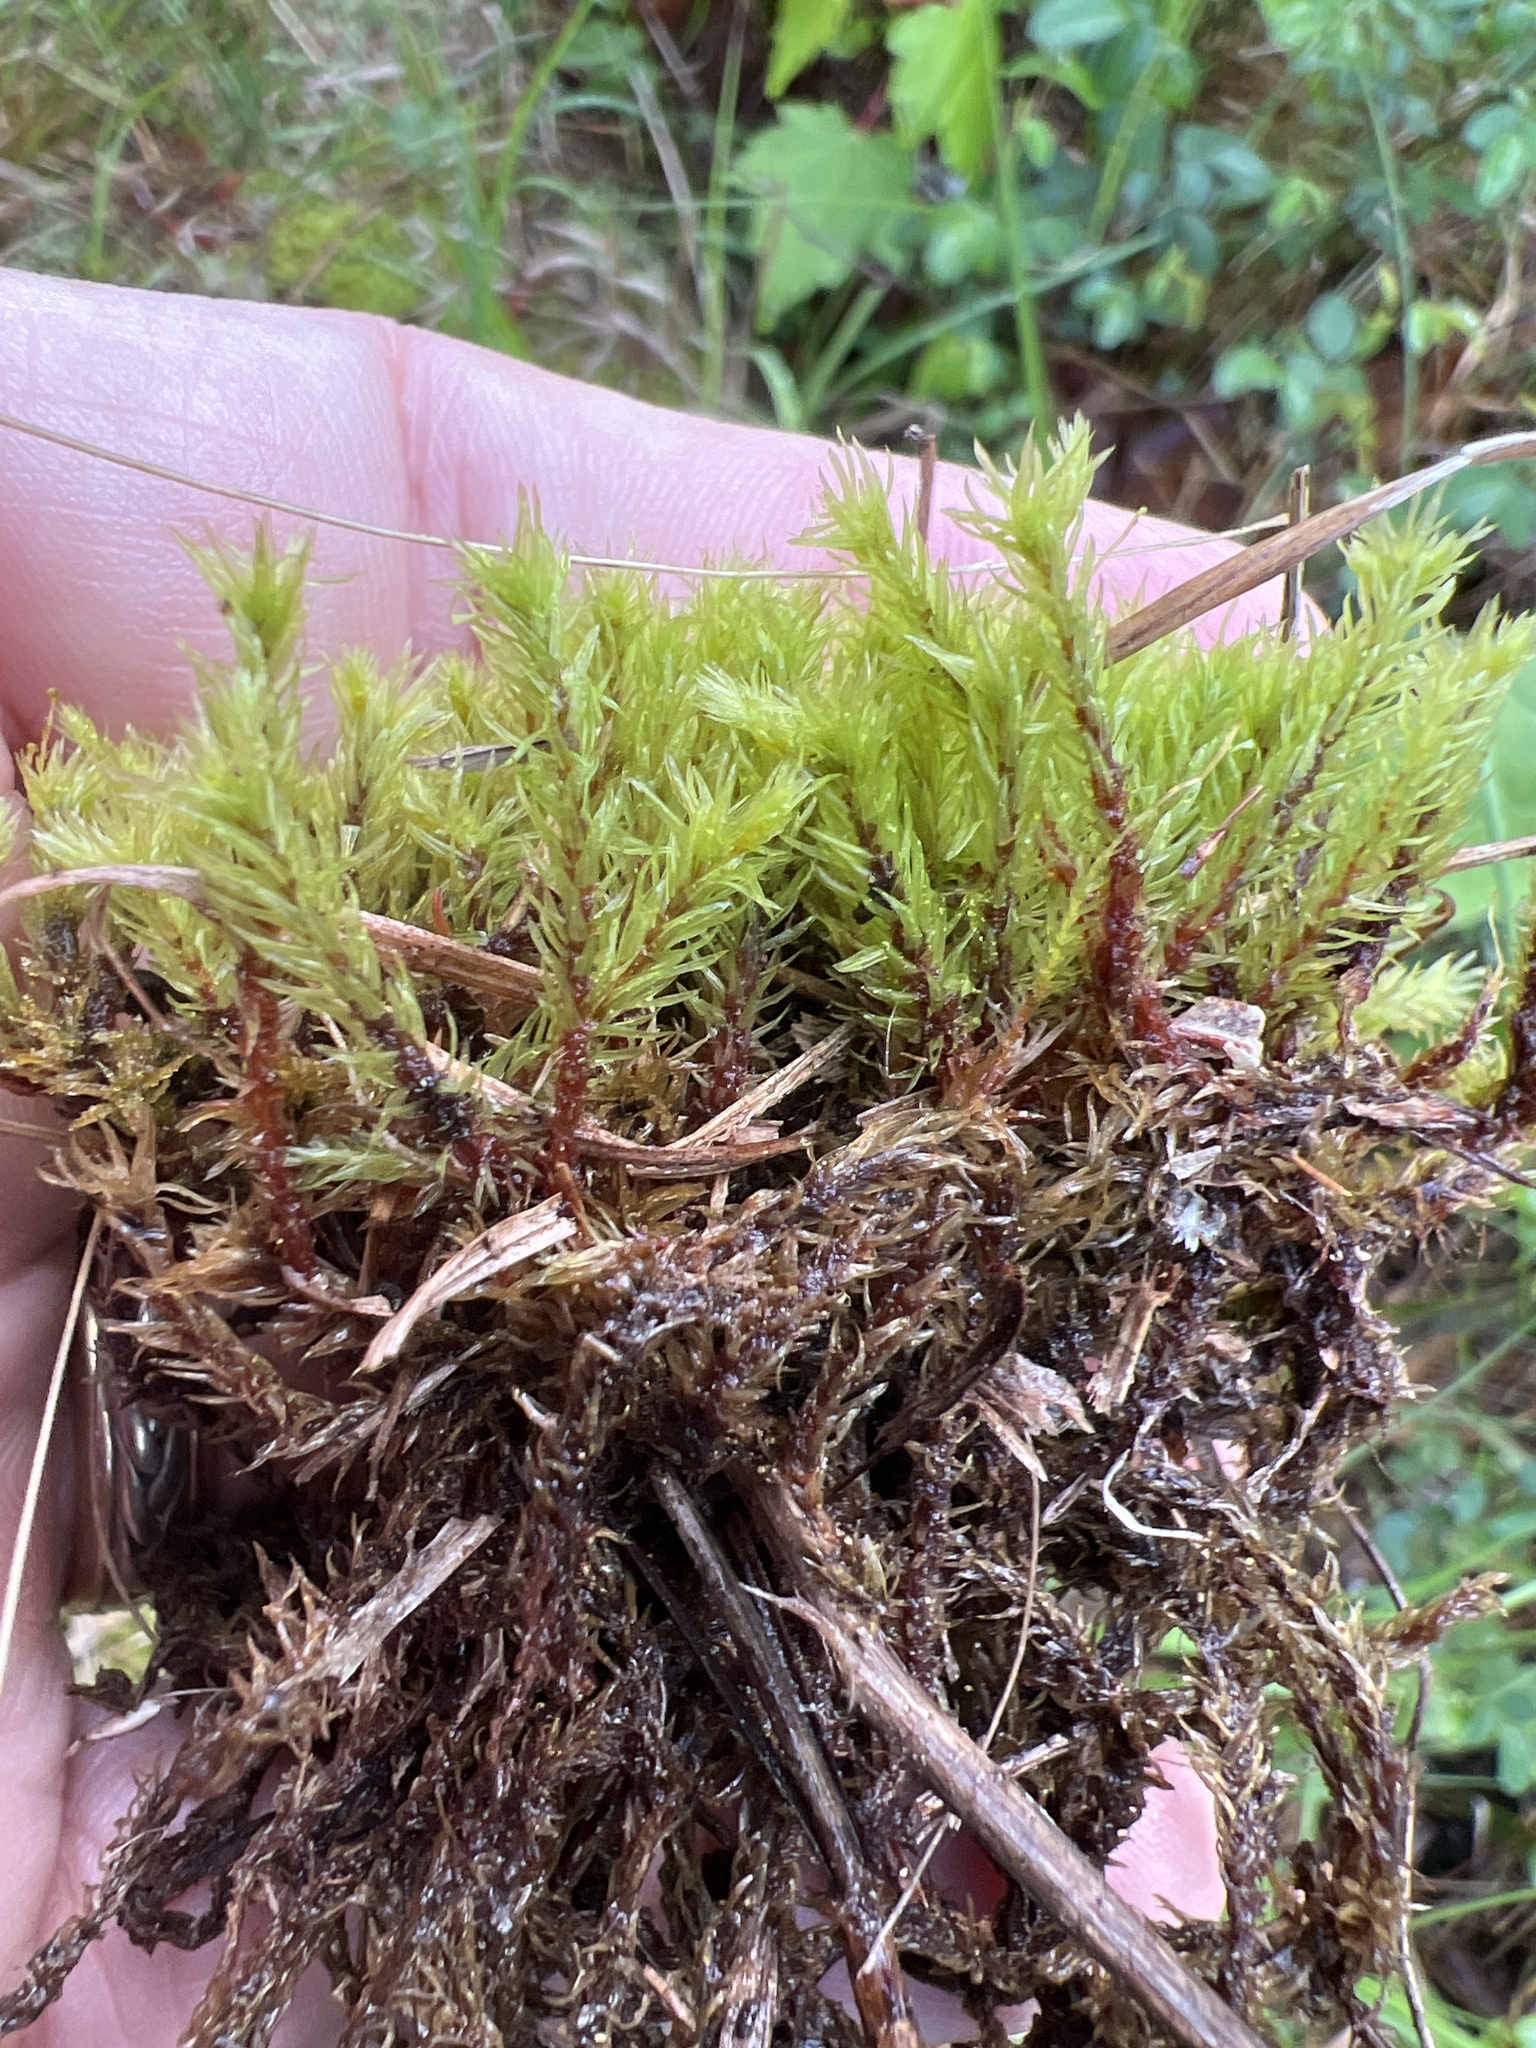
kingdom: Plantae
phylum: Bryophyta
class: Bryopsida
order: Aulacomniales
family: Aulacomniaceae
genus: Aulacomnium
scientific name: Aulacomnium palustre
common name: Bog groove-moss
